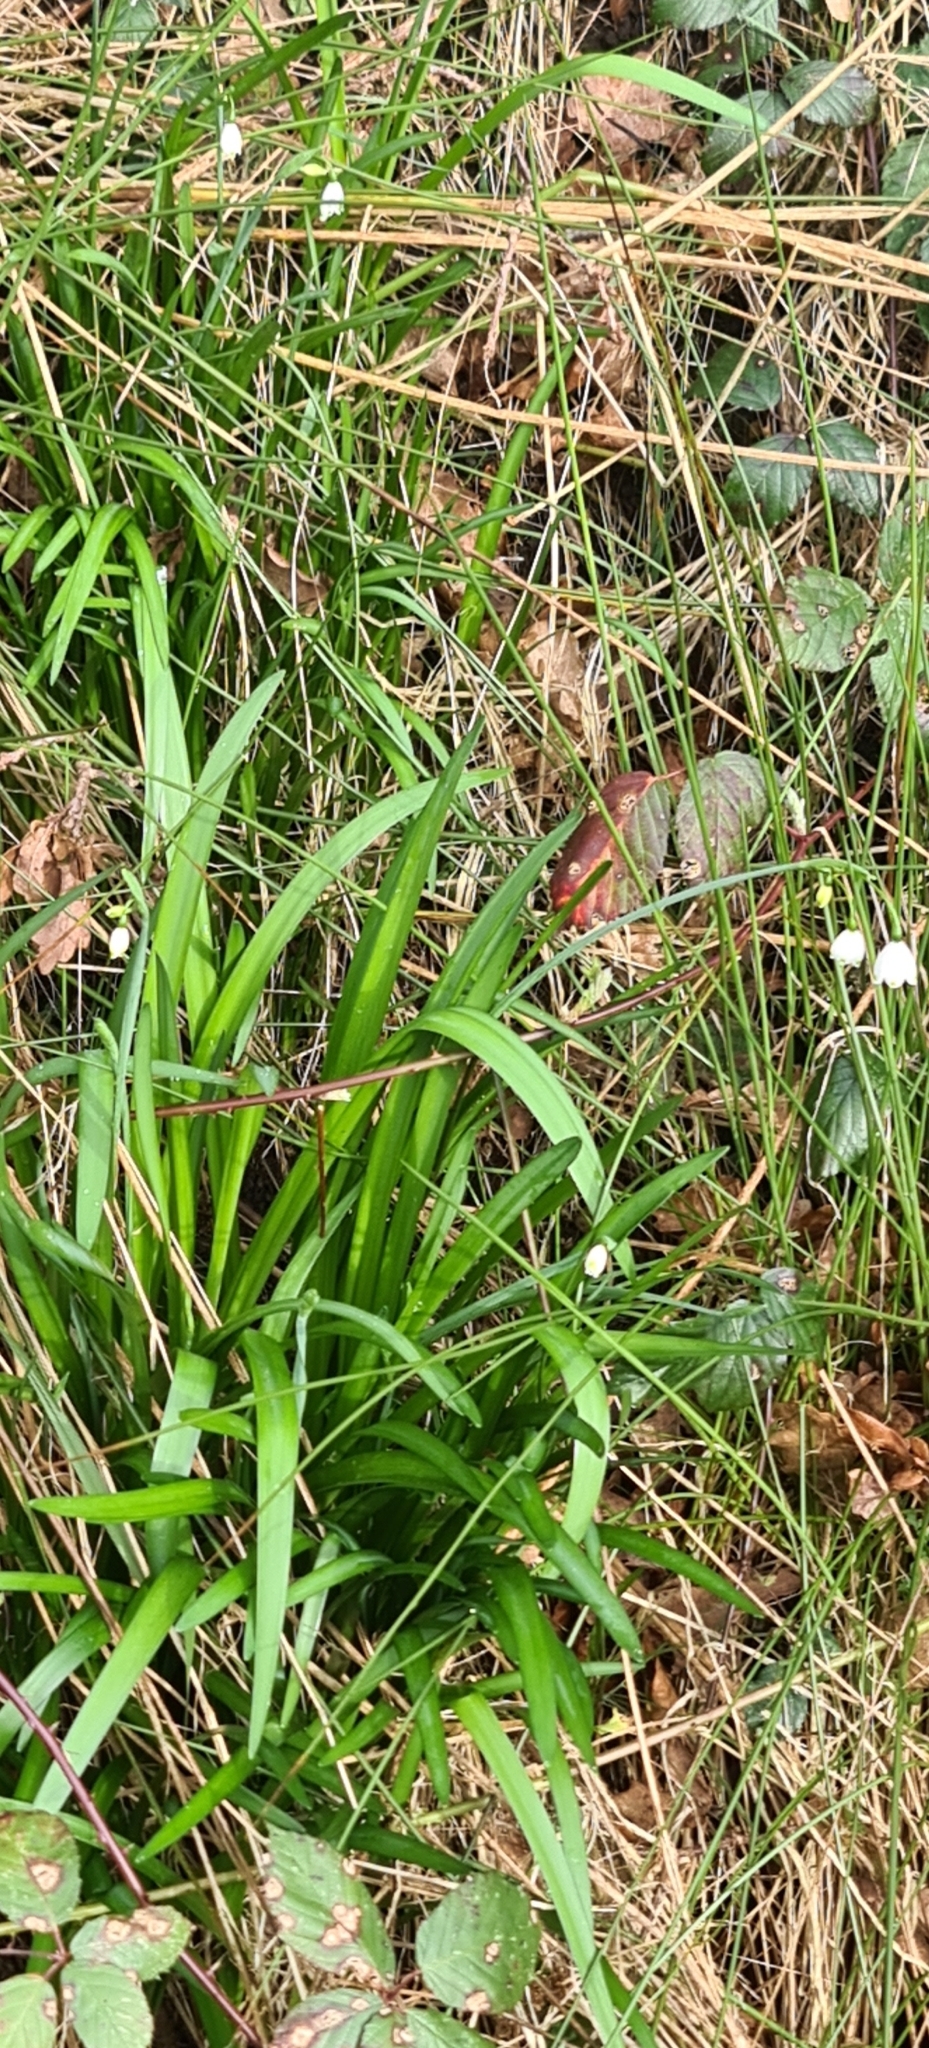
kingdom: Plantae
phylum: Tracheophyta
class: Liliopsida
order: Asparagales
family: Amaryllidaceae
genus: Leucojum
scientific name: Leucojum aestivum
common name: Summer snowflake
